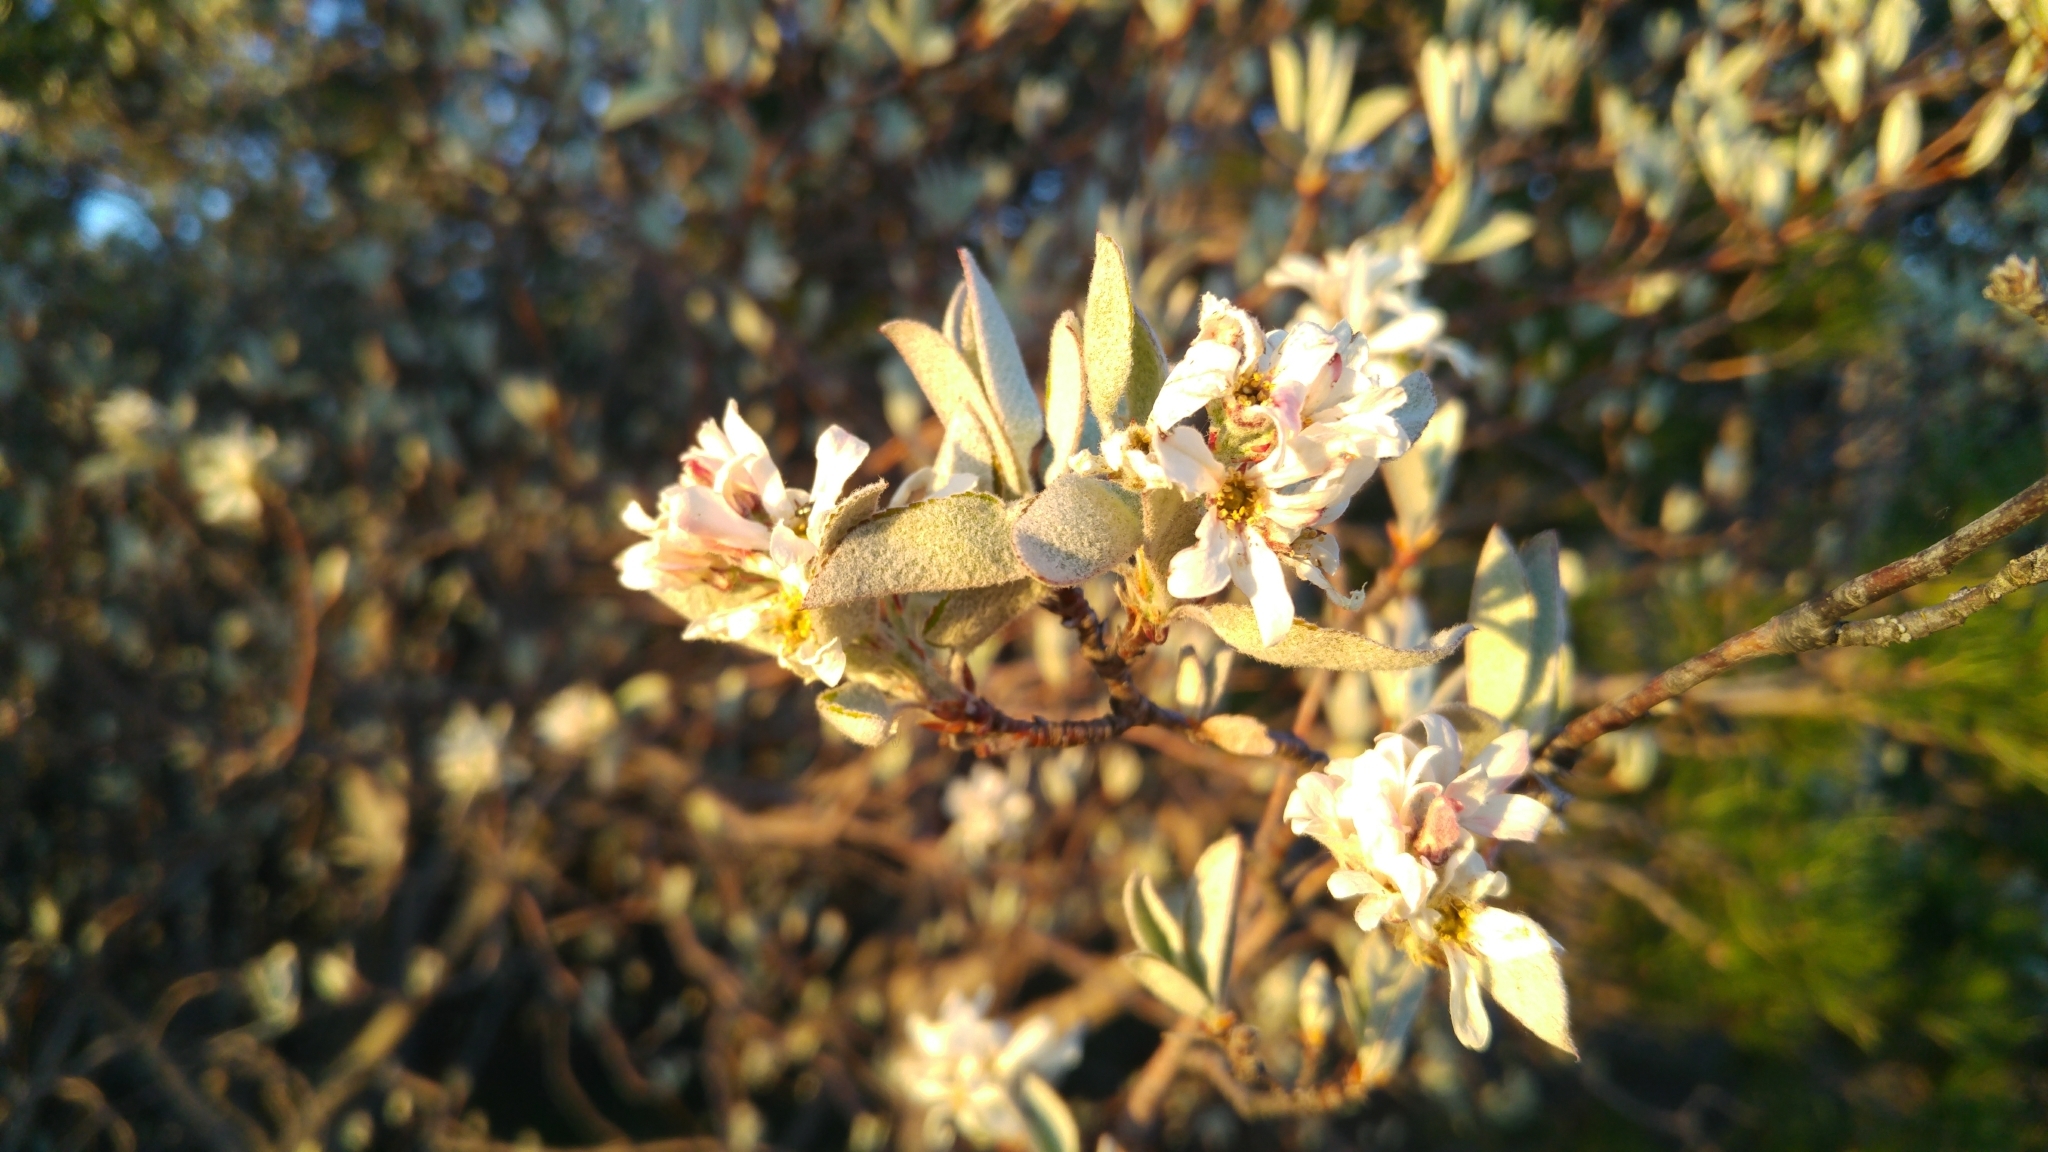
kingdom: Plantae
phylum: Tracheophyta
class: Magnoliopsida
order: Rosales
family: Rosaceae
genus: Amelanchier
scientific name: Amelanchier ovalis
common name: Serviceberry
